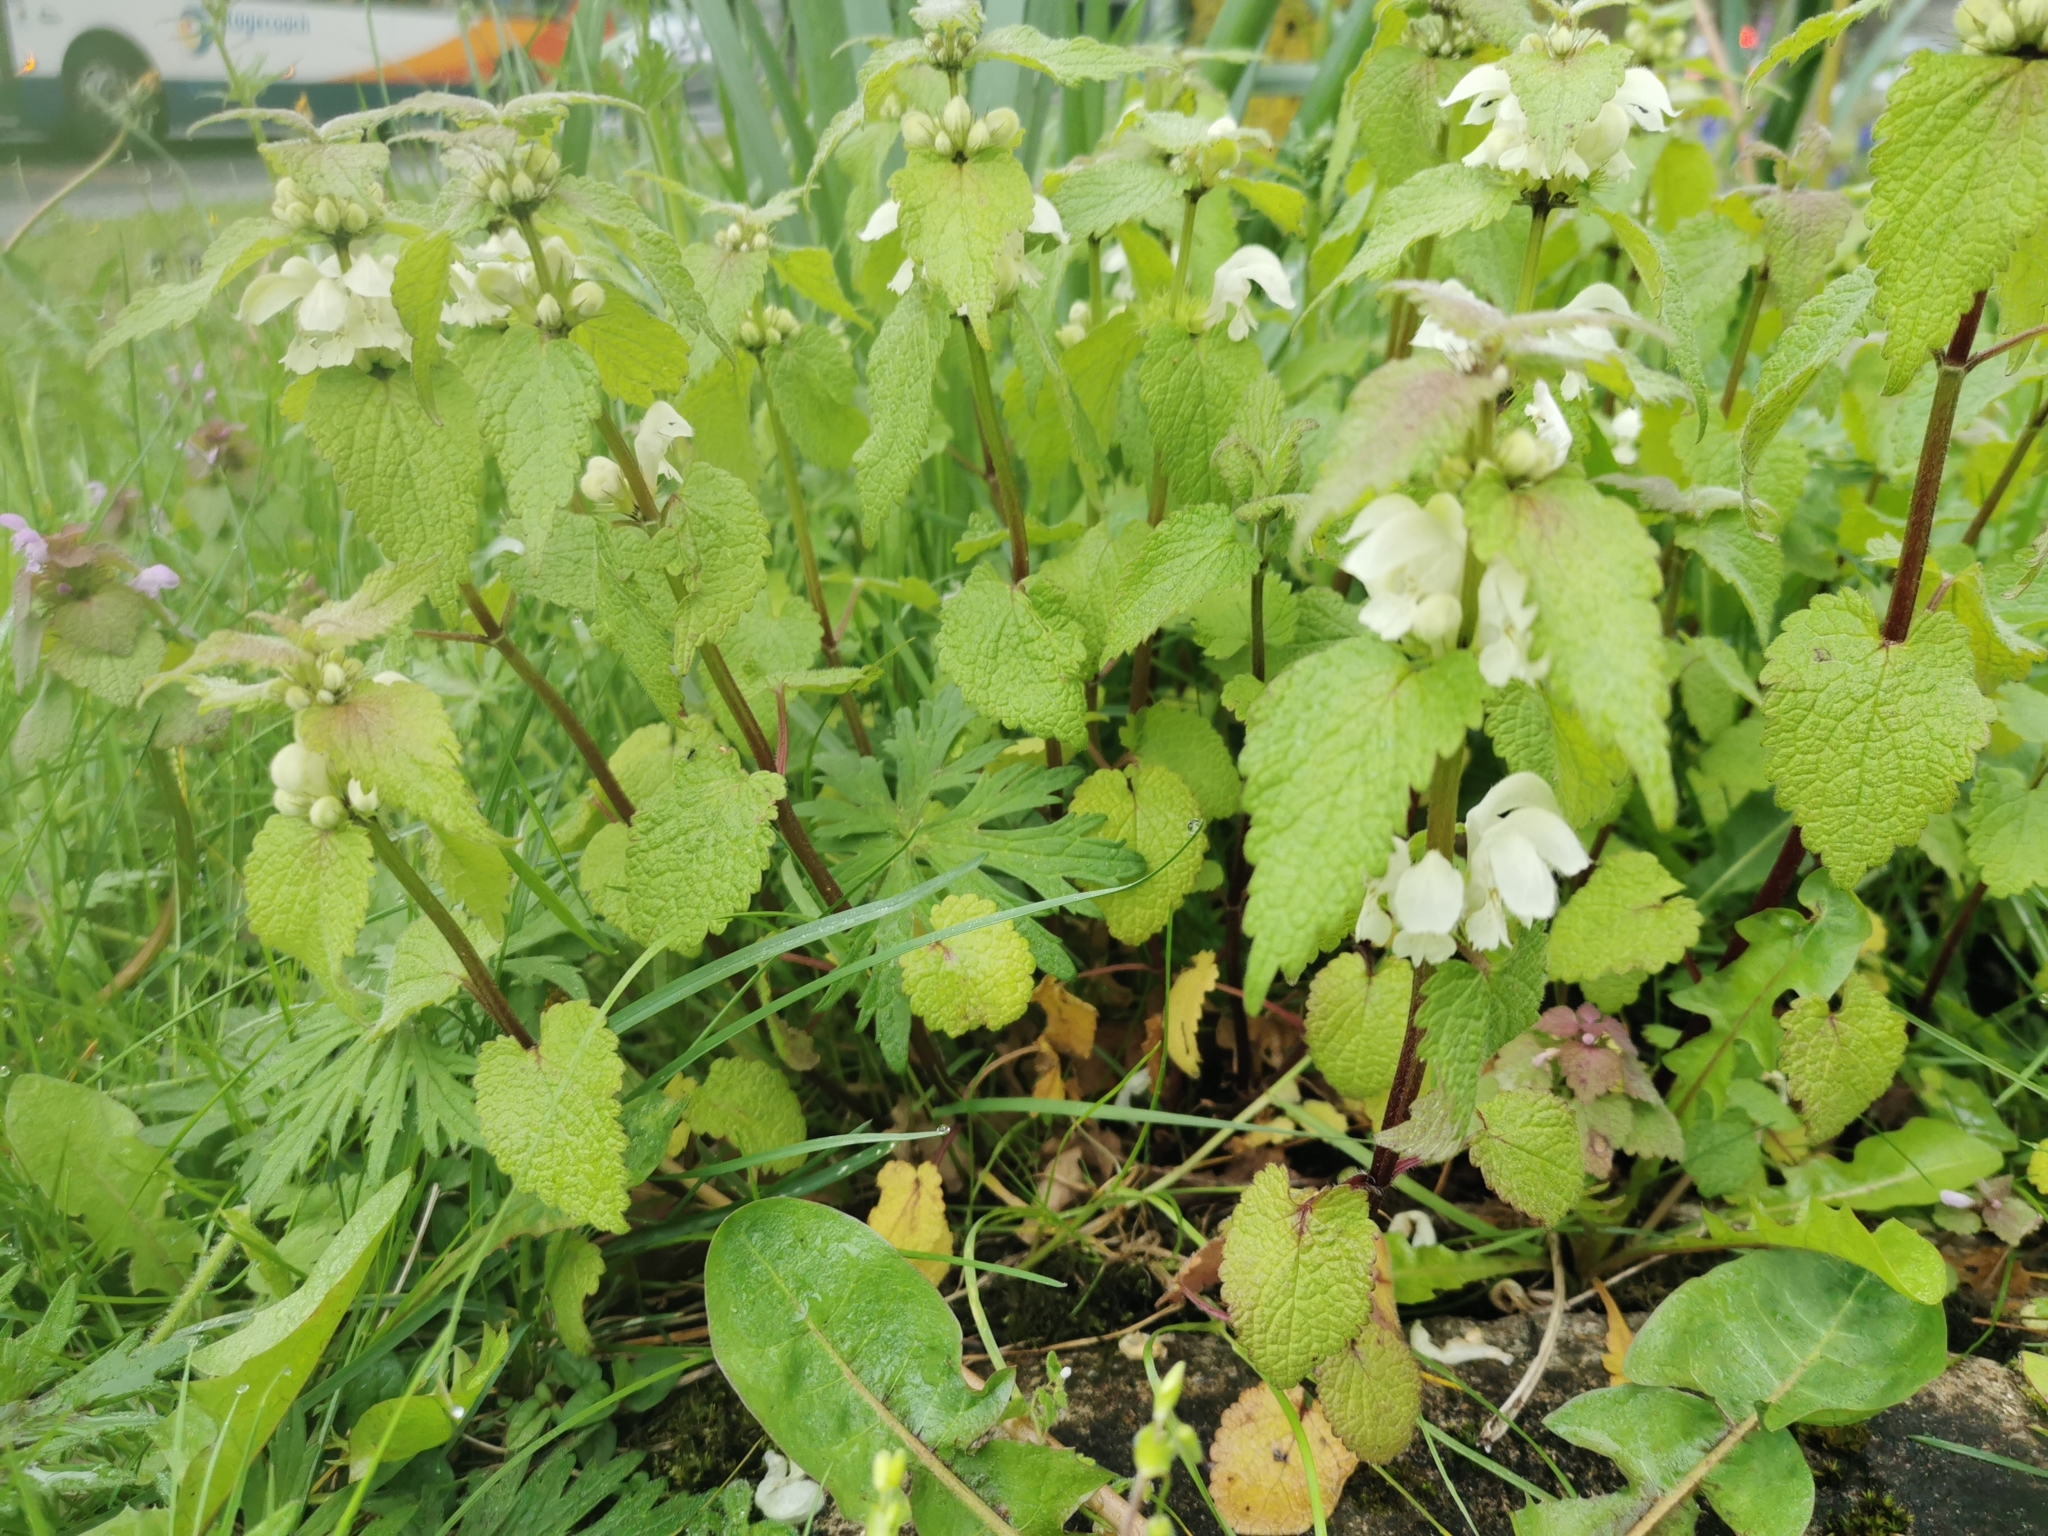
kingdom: Plantae
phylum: Tracheophyta
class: Magnoliopsida
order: Lamiales
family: Lamiaceae
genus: Lamium
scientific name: Lamium album
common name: White dead-nettle
